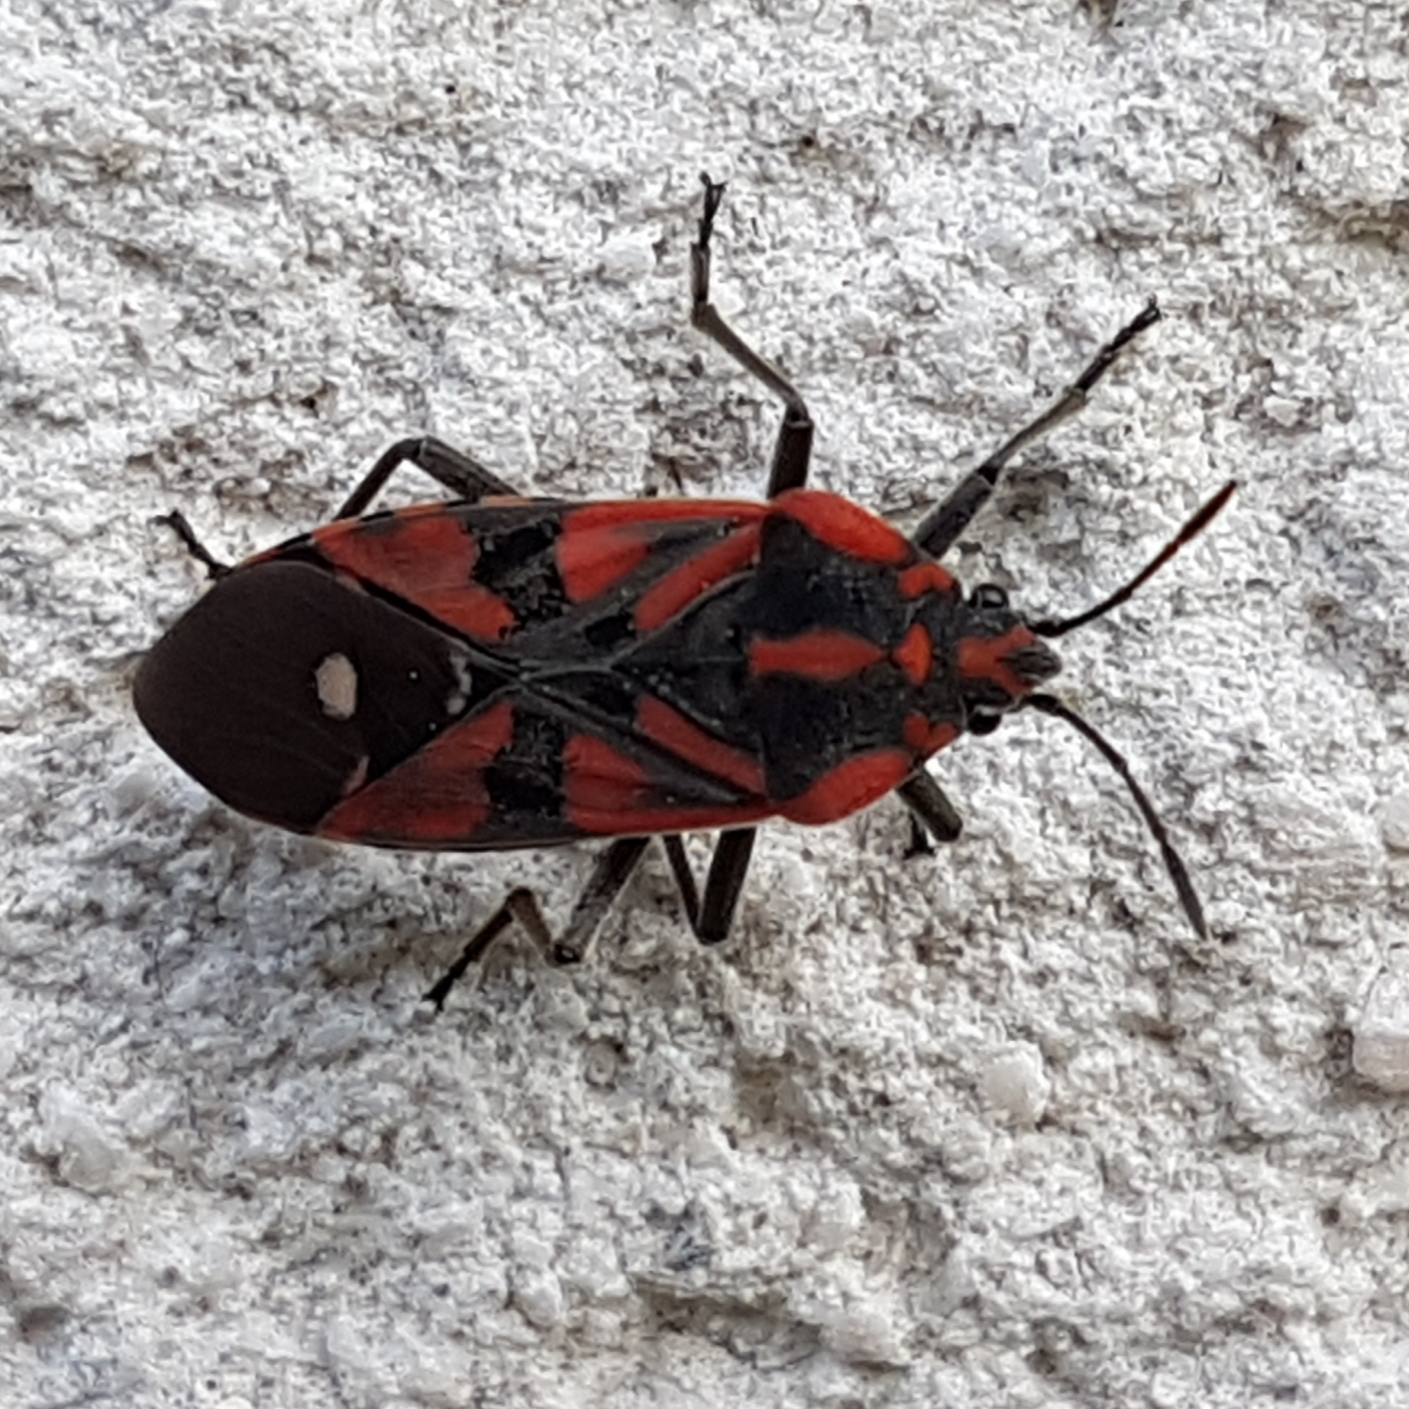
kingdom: Animalia
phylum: Arthropoda
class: Insecta
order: Hemiptera
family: Lygaeidae
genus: Spilostethus
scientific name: Spilostethus pandurus
